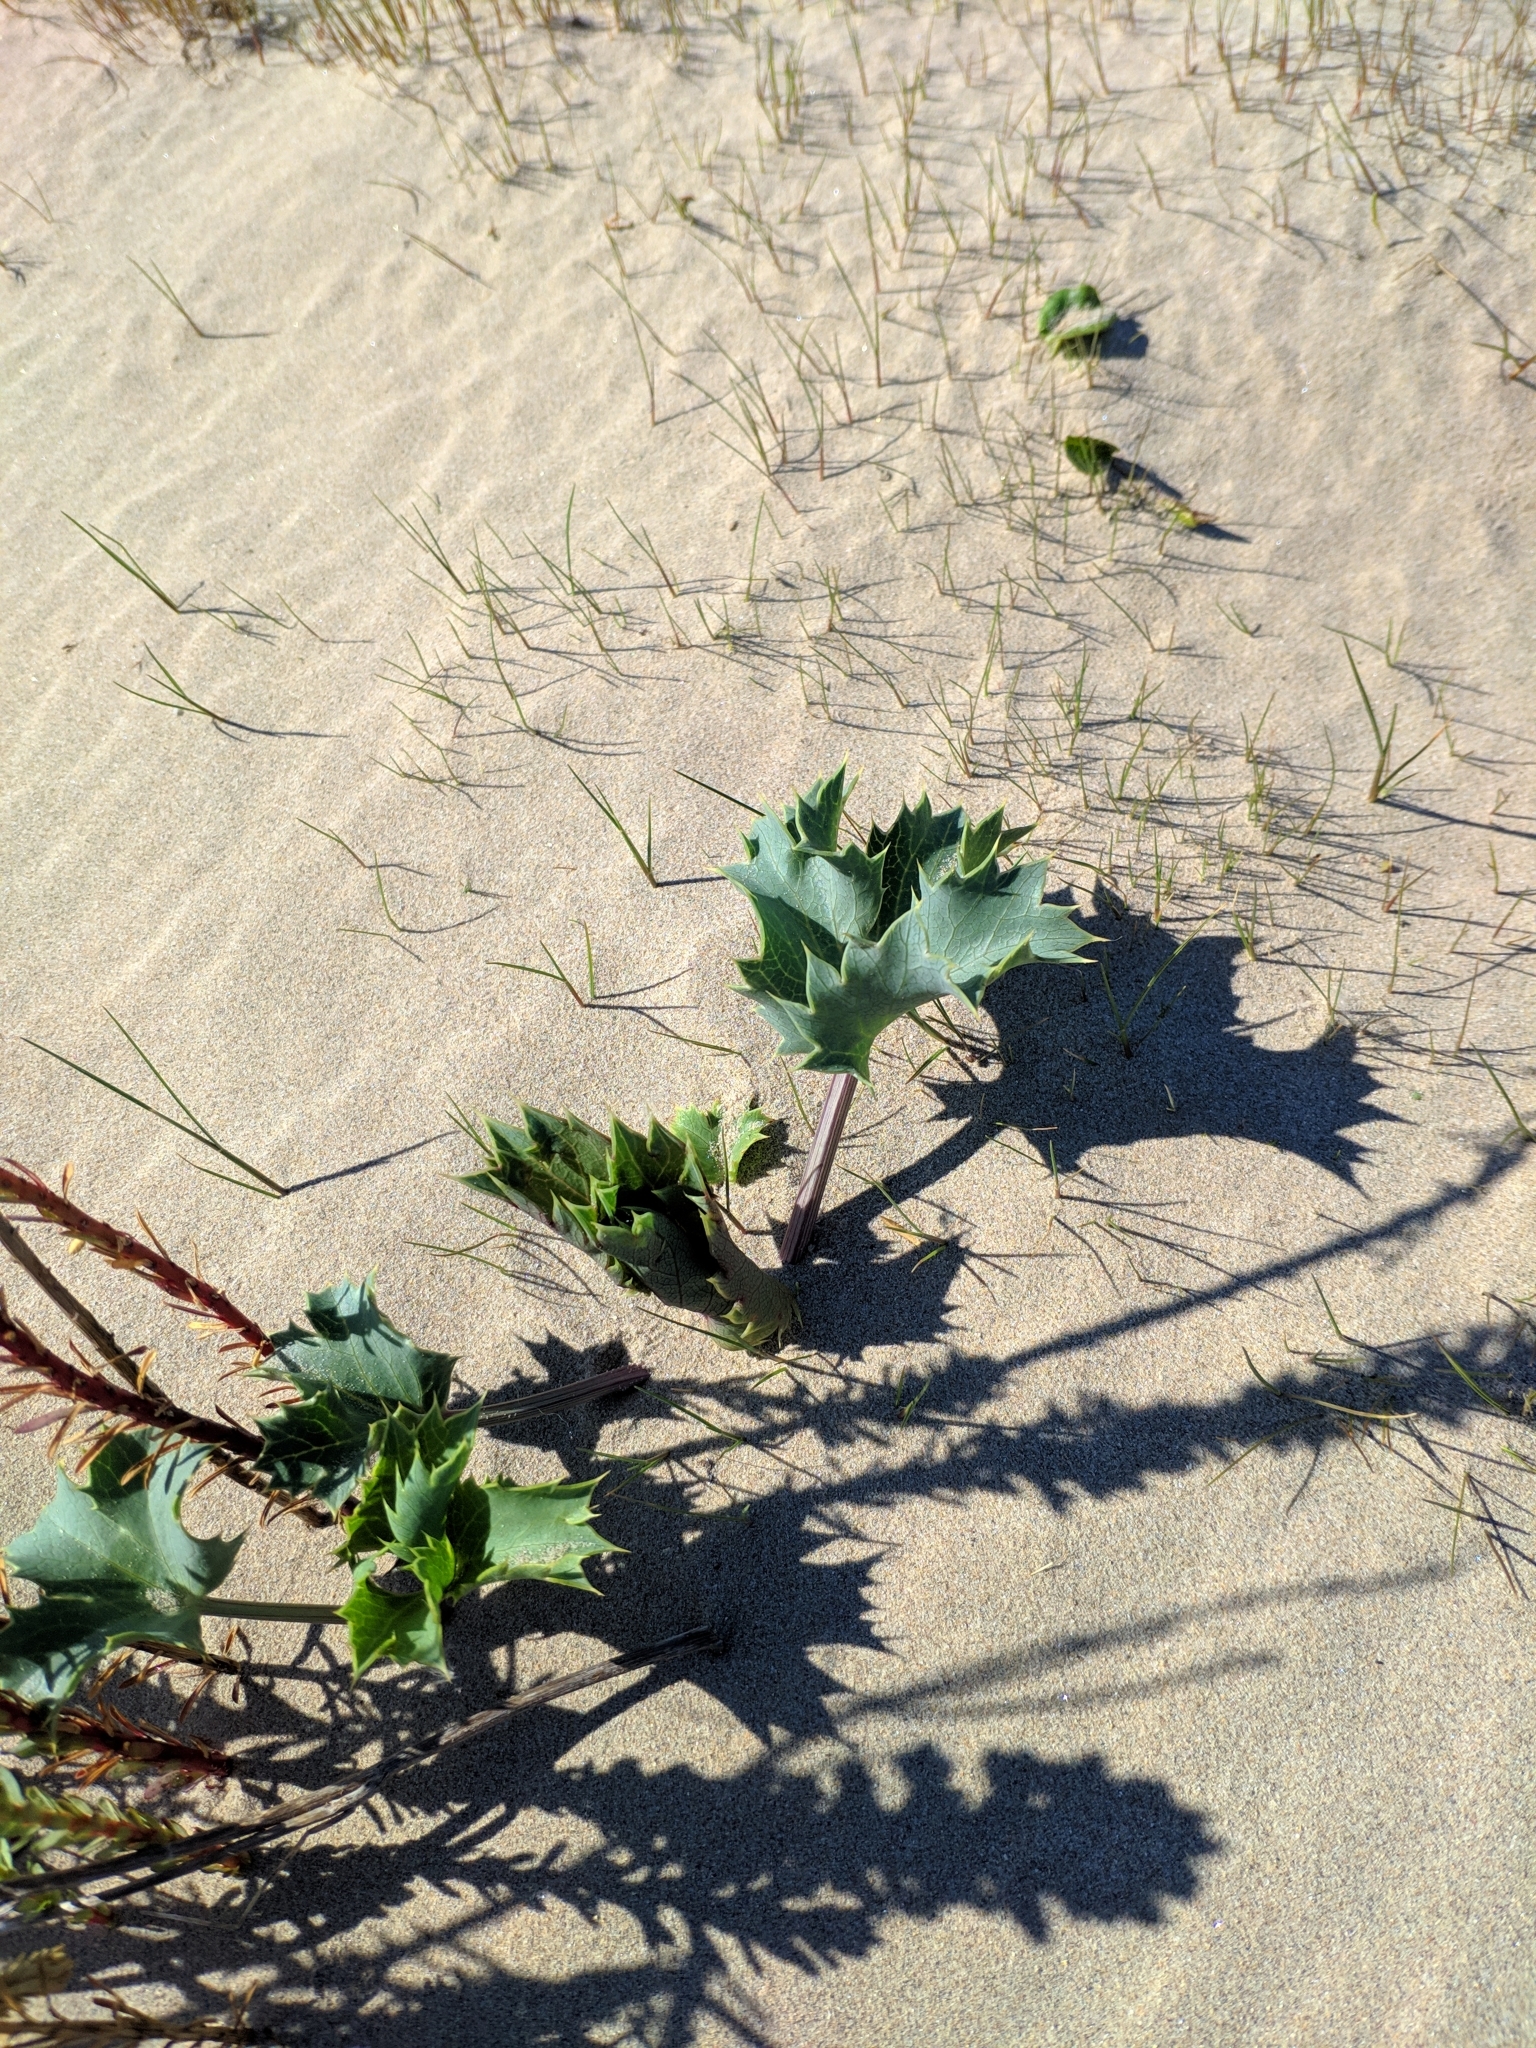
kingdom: Plantae
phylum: Tracheophyta
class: Magnoliopsida
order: Apiales
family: Apiaceae
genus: Eryngium
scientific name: Eryngium maritimum
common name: Sea-holly
